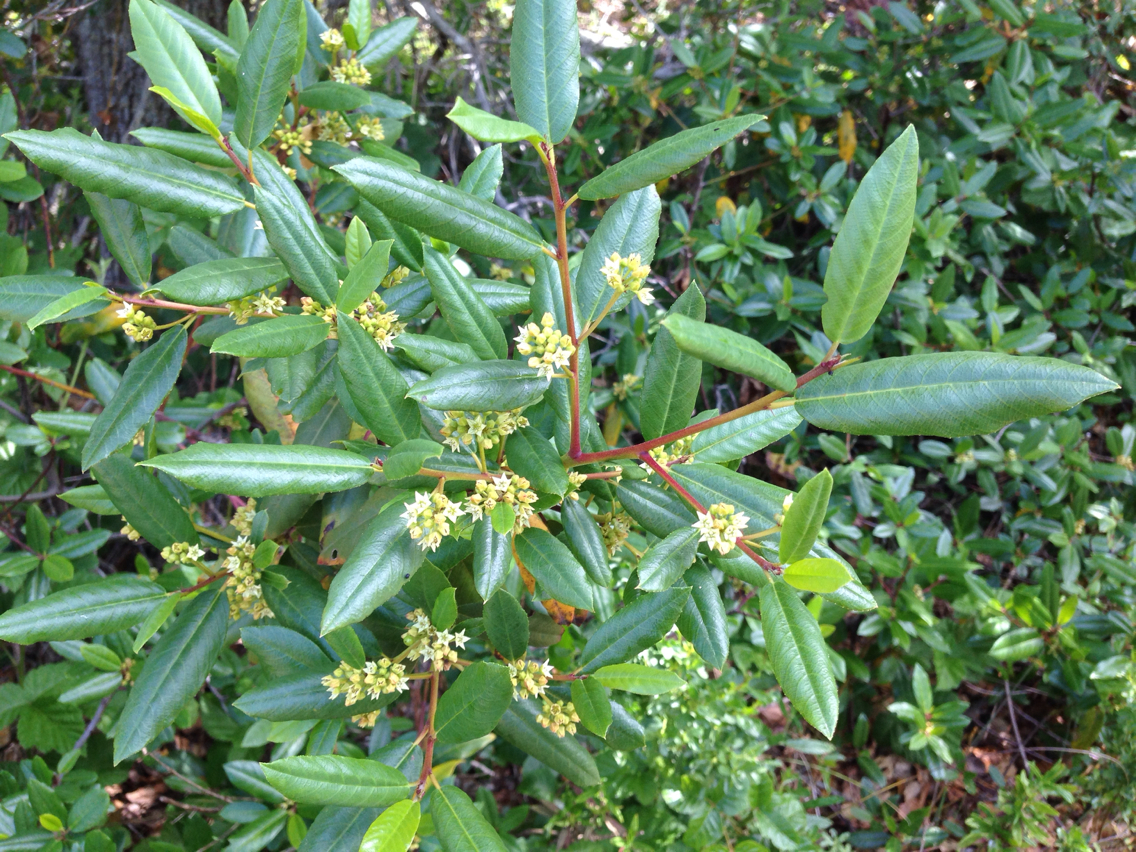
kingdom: Plantae
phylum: Tracheophyta
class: Magnoliopsida
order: Rosales
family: Rhamnaceae
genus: Frangula
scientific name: Frangula californica
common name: California buckthorn
